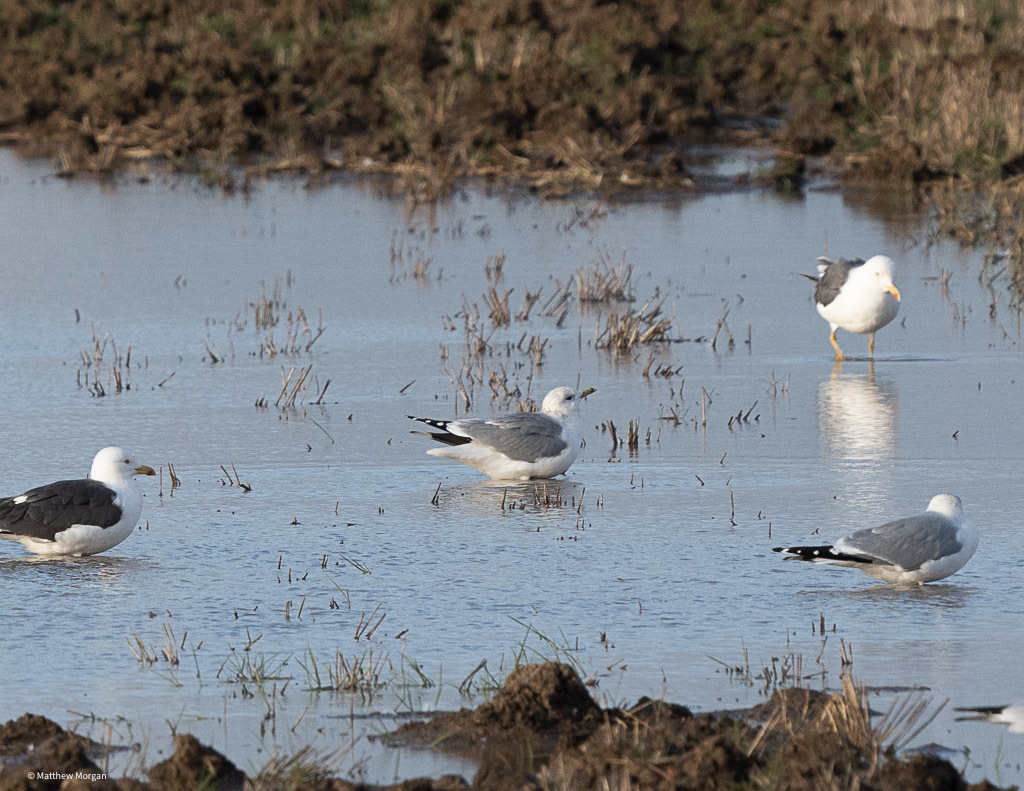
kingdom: Animalia
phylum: Chordata
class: Aves
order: Charadriiformes
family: Laridae
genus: Larus
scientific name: Larus canus
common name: Mew gull
